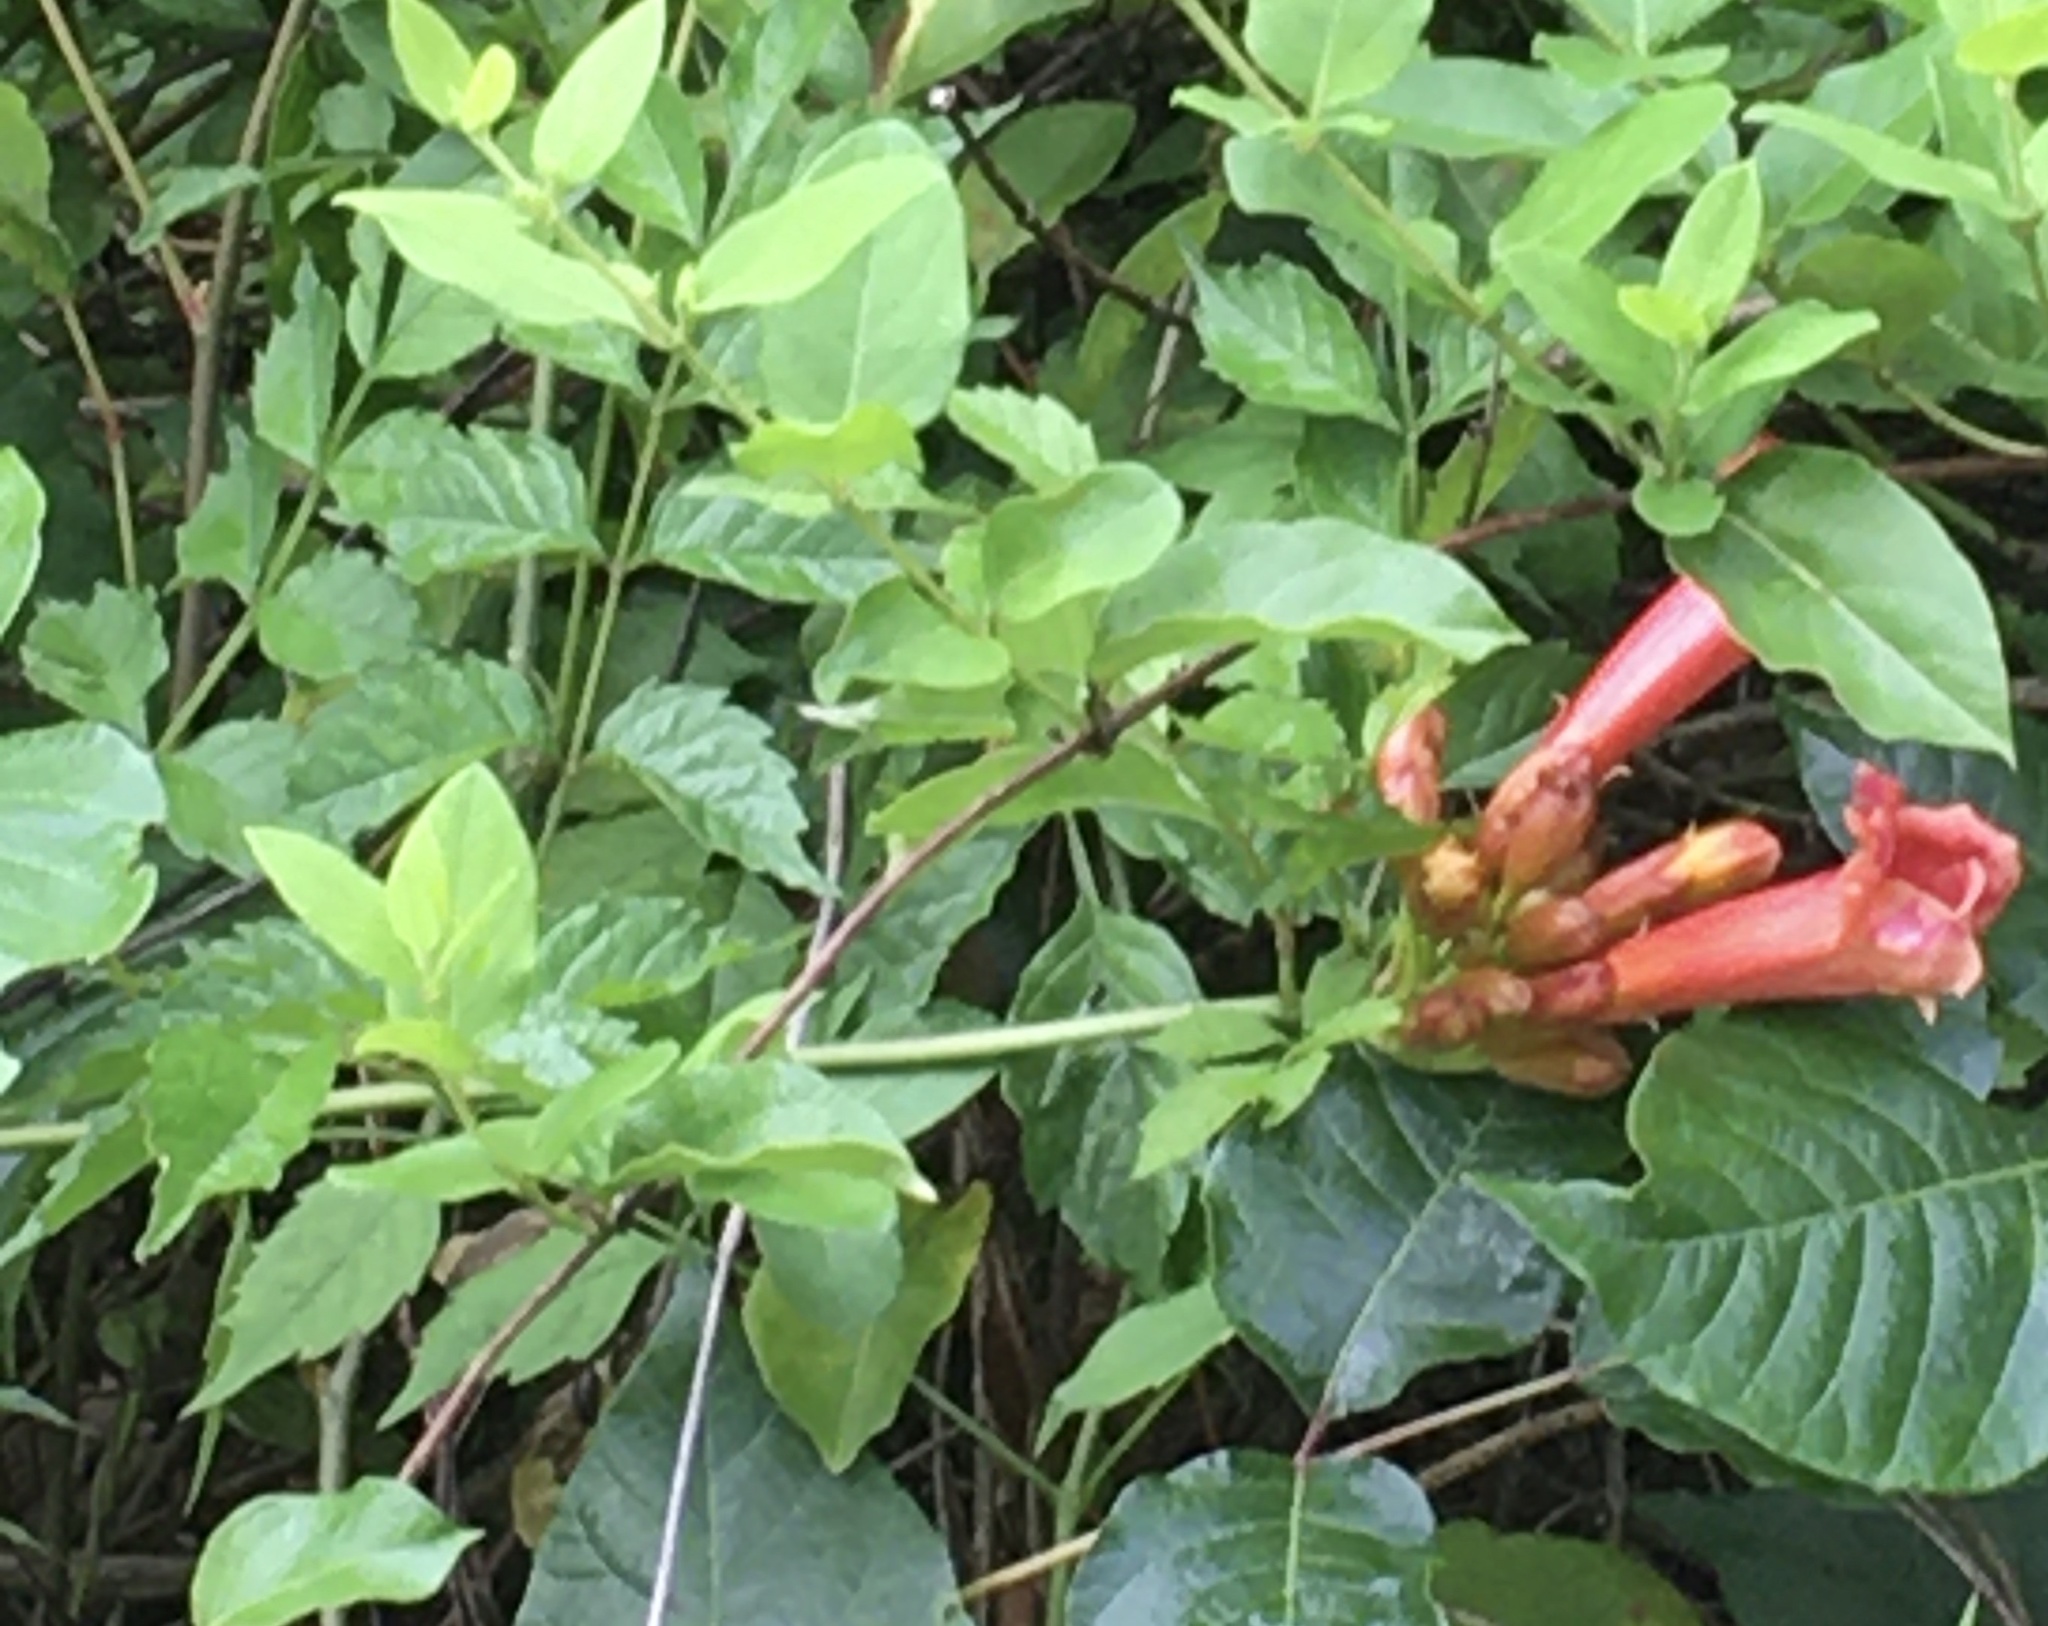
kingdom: Plantae
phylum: Tracheophyta
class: Magnoliopsida
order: Lamiales
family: Bignoniaceae
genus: Campsis
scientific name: Campsis radicans
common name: Trumpet-creeper
